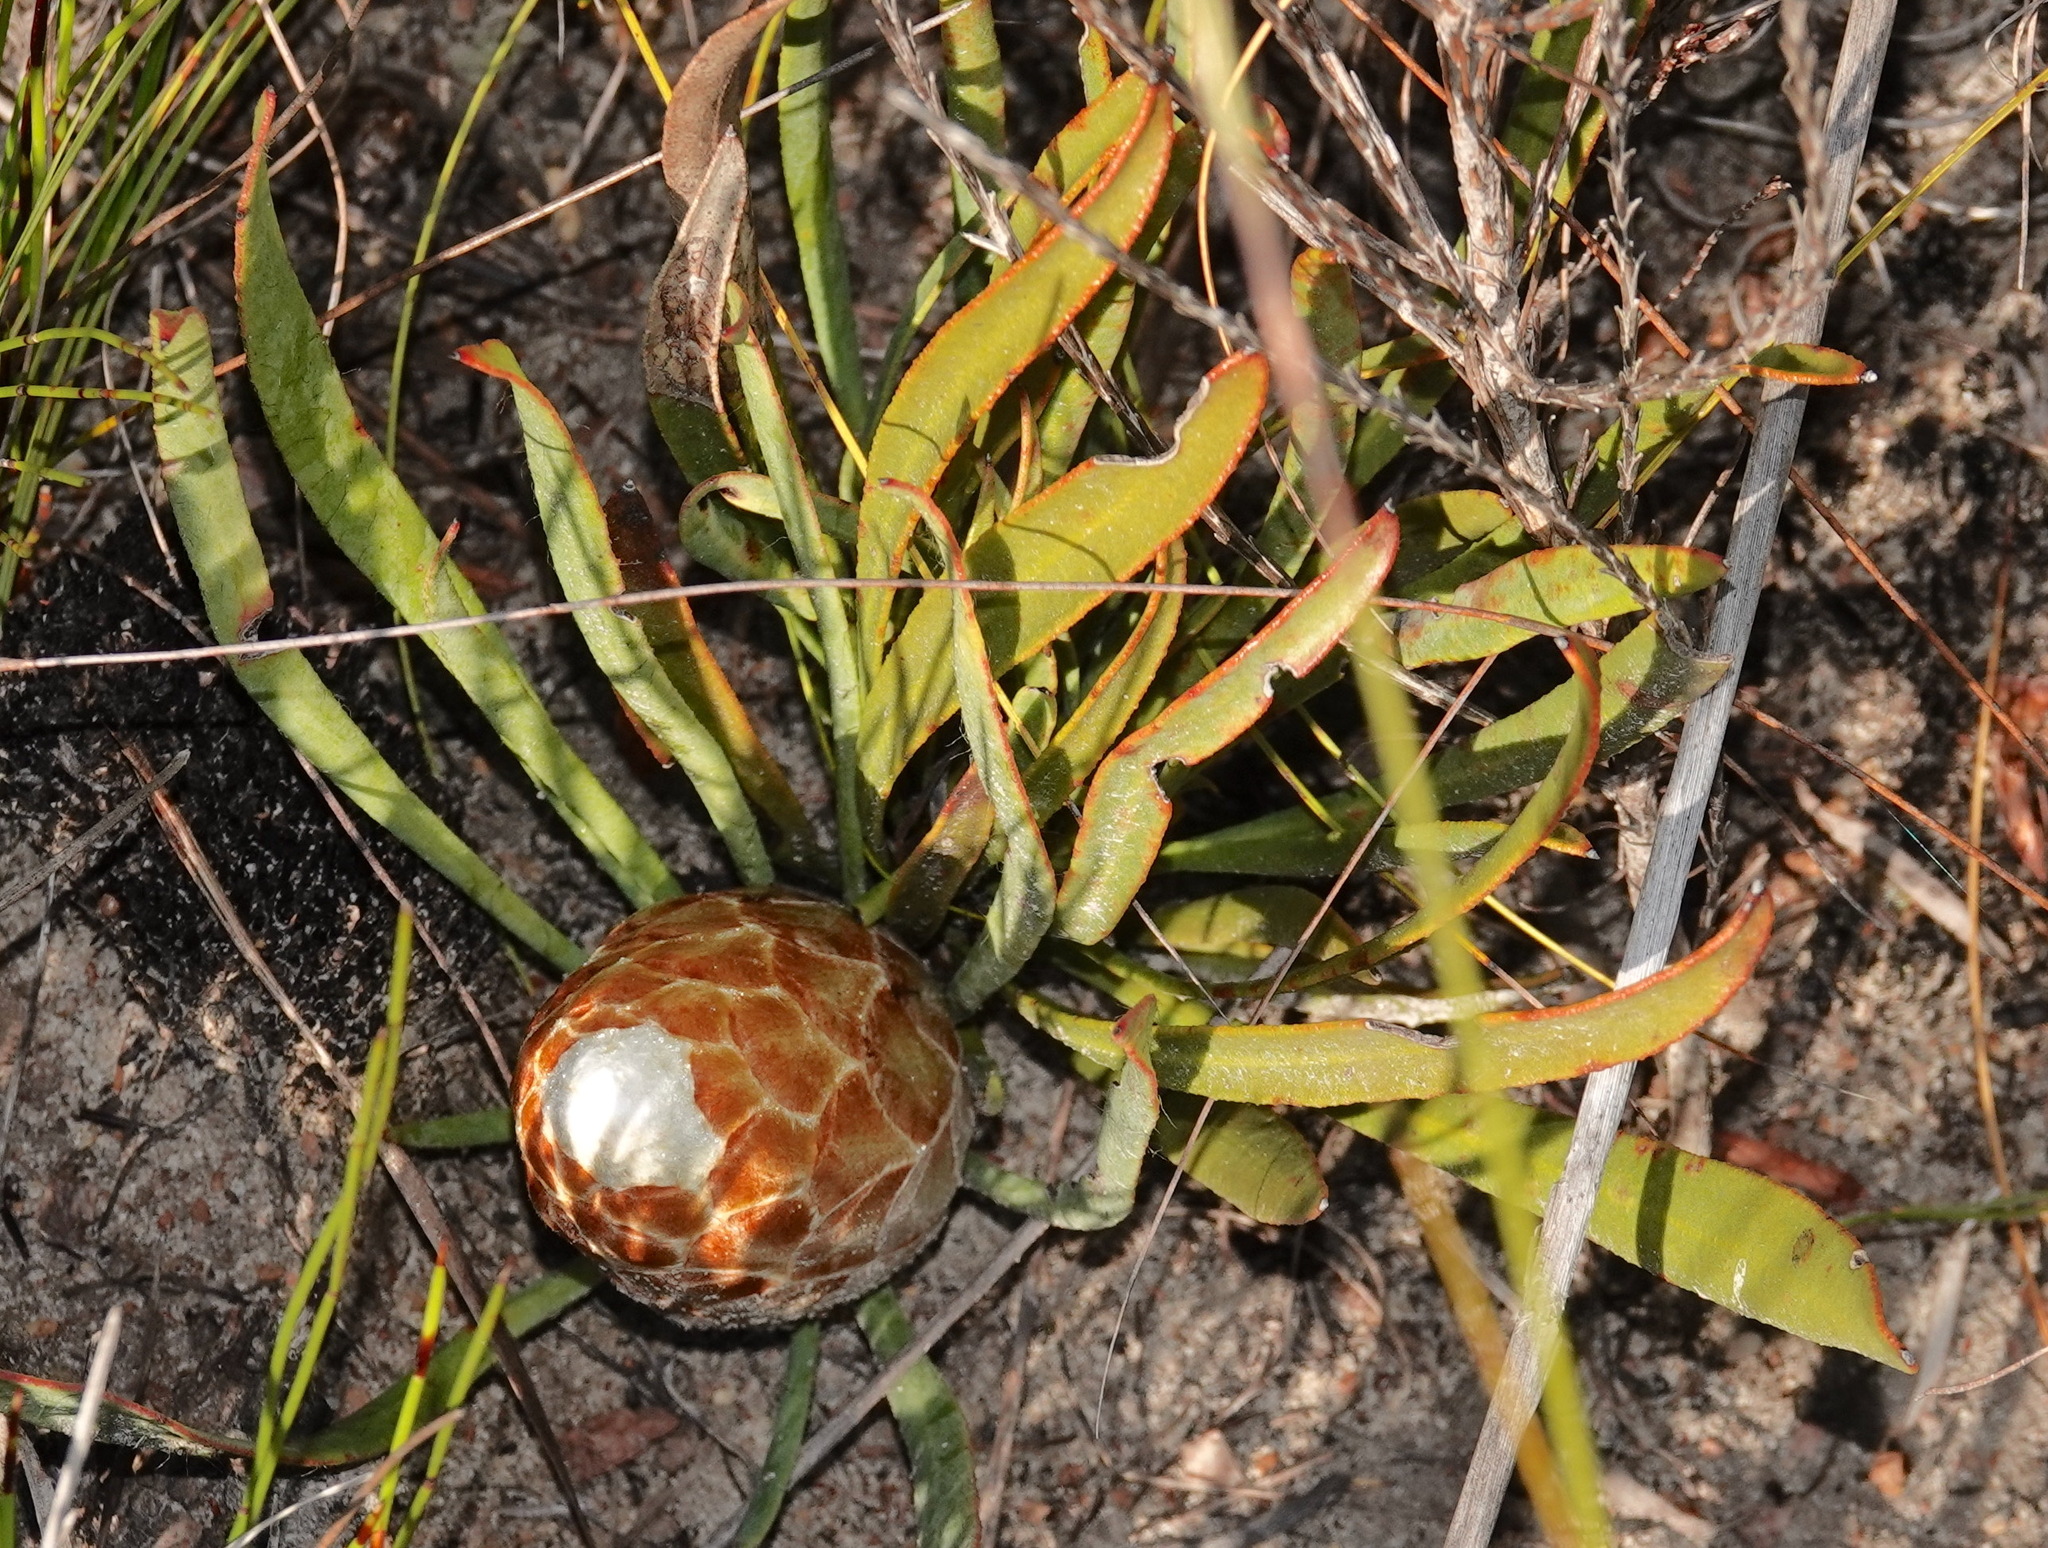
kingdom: Plantae
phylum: Tracheophyta
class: Magnoliopsida
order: Proteales
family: Proteaceae
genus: Protea
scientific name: Protea aspera
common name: Rough-leaf sugarbush
